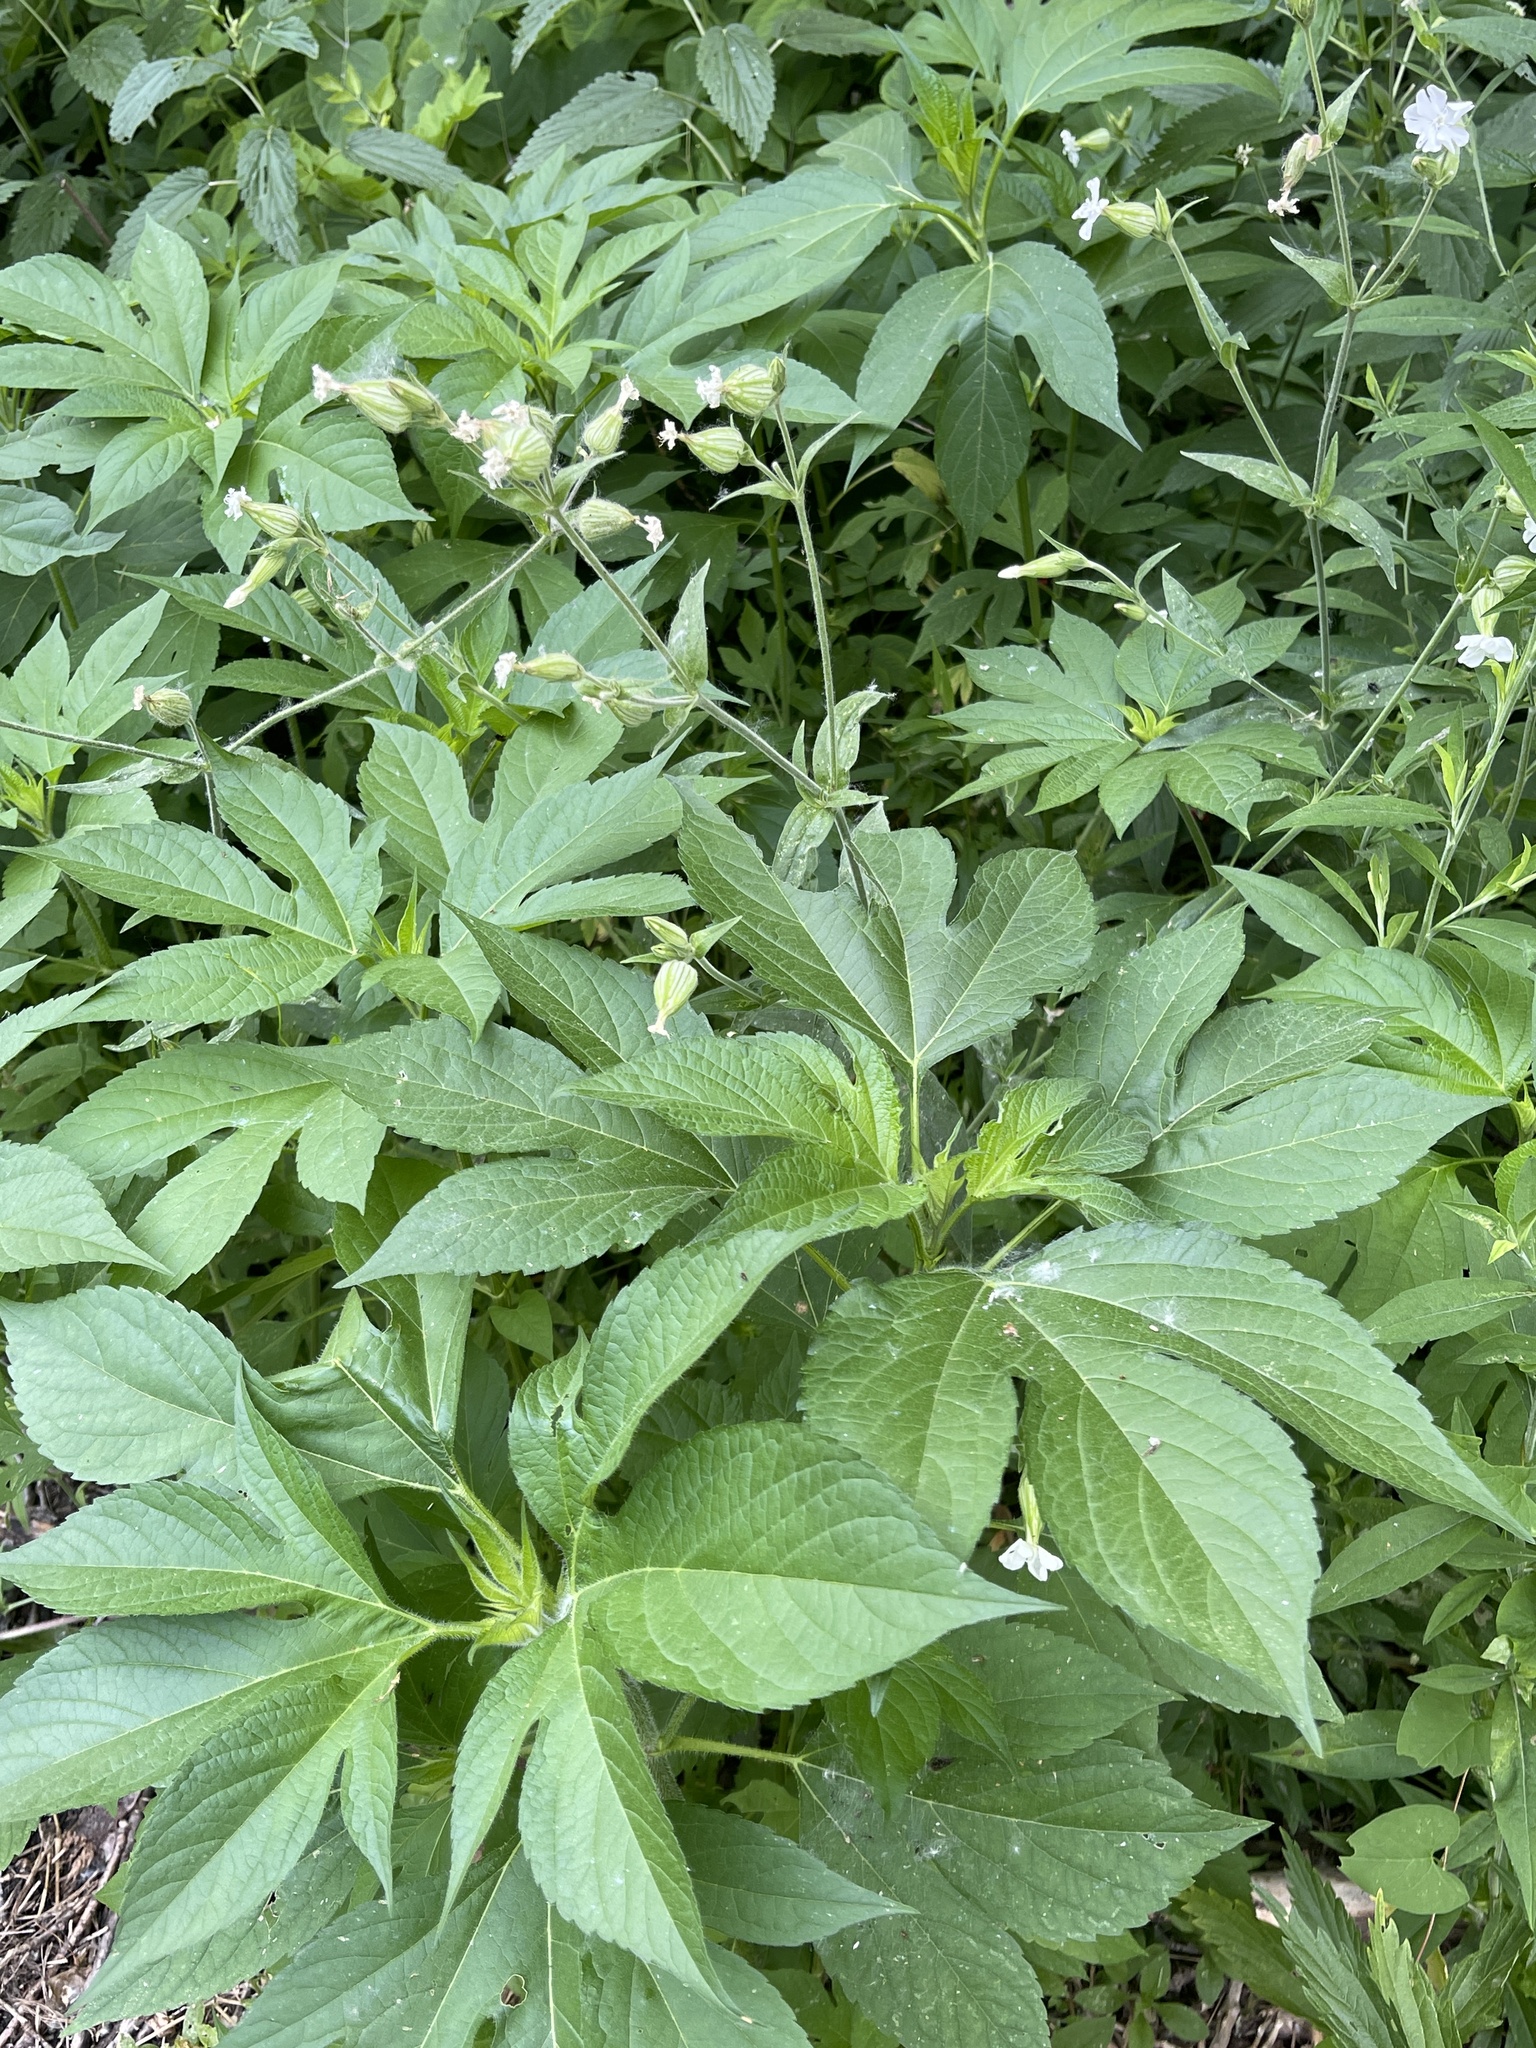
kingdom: Plantae
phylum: Tracheophyta
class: Magnoliopsida
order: Caryophyllales
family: Caryophyllaceae
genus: Silene
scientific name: Silene latifolia
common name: White campion
